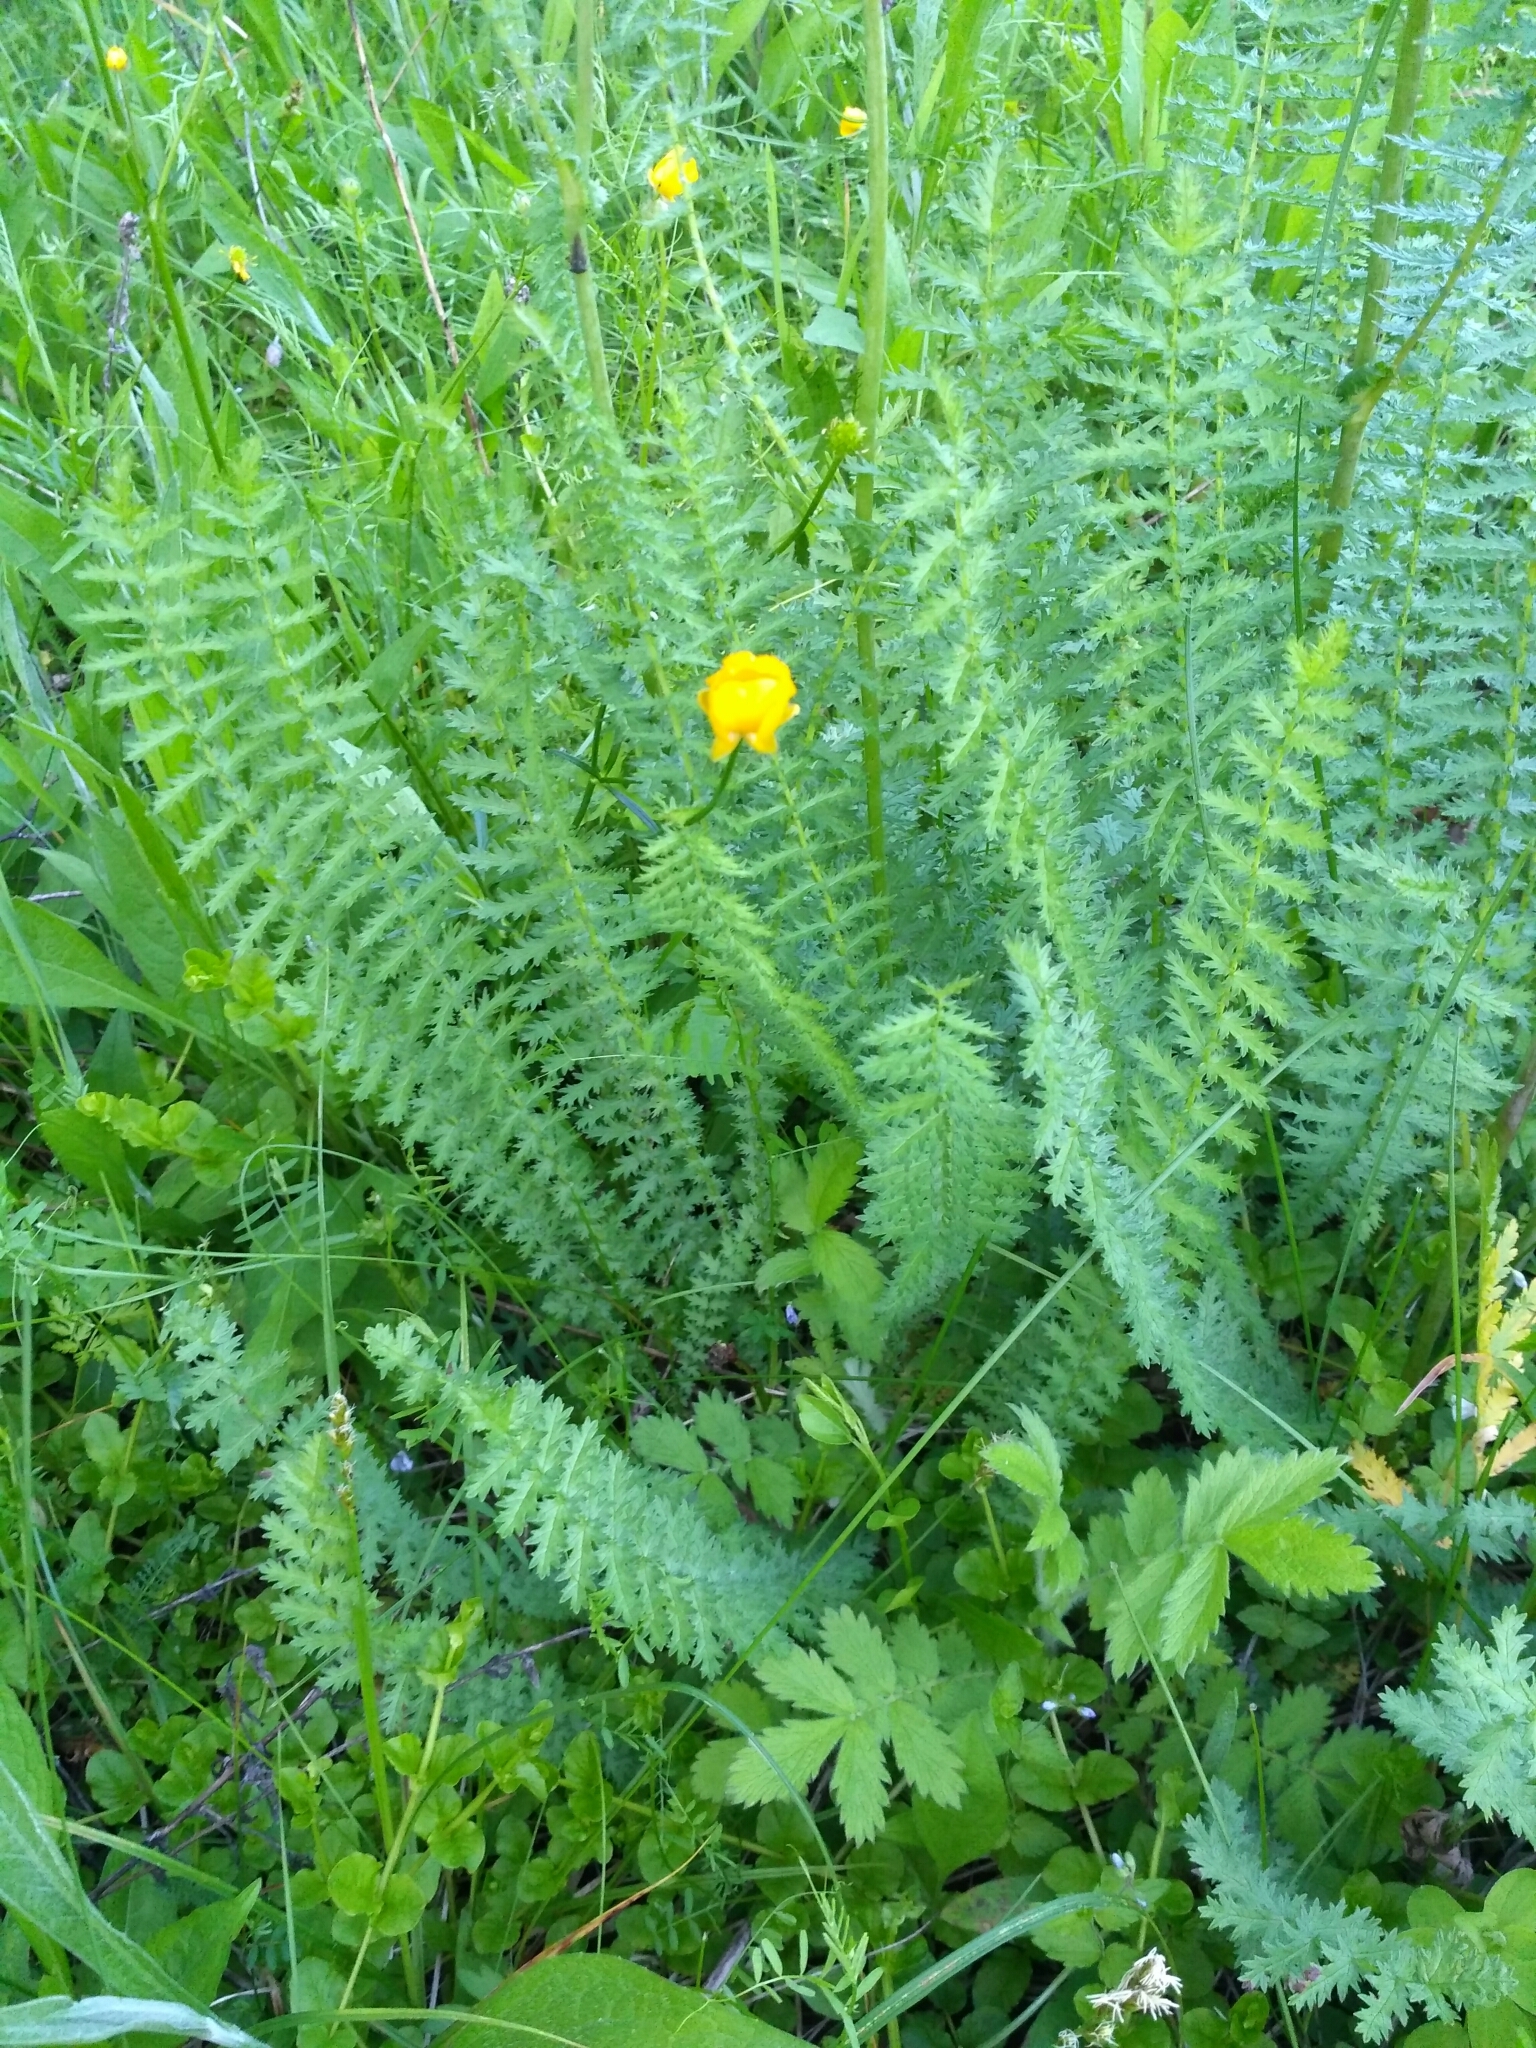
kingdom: Plantae
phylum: Tracheophyta
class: Magnoliopsida
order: Rosales
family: Rosaceae
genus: Filipendula
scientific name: Filipendula vulgaris
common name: Dropwort
